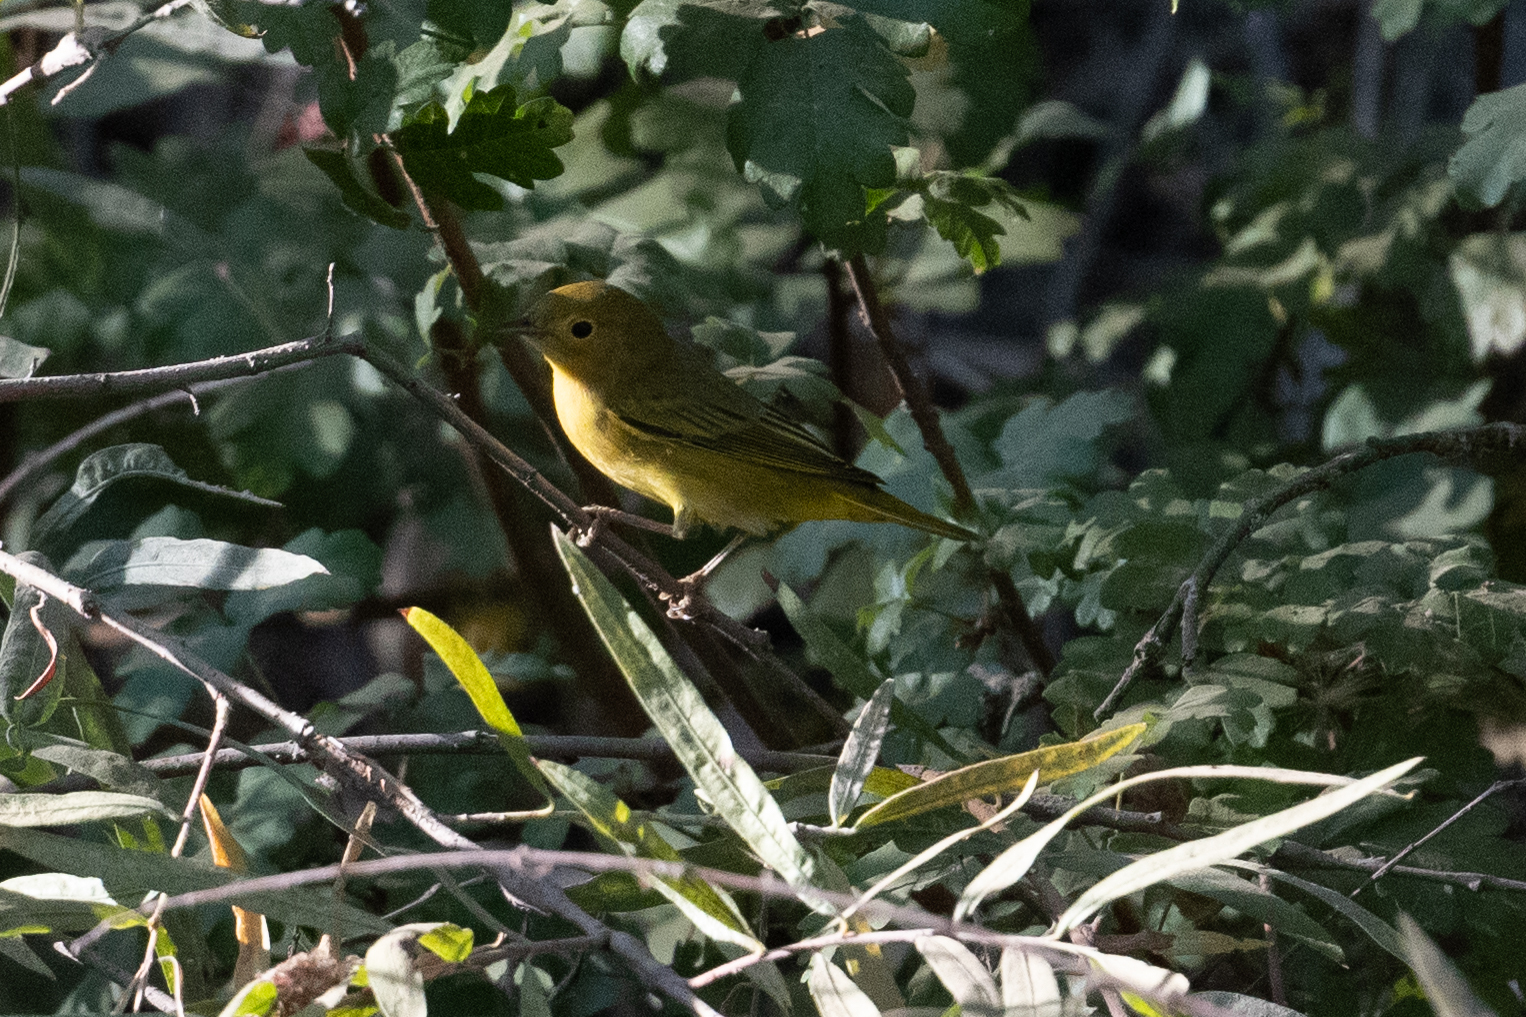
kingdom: Animalia
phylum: Chordata
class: Aves
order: Passeriformes
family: Parulidae
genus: Setophaga
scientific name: Setophaga petechia
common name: Yellow warbler
